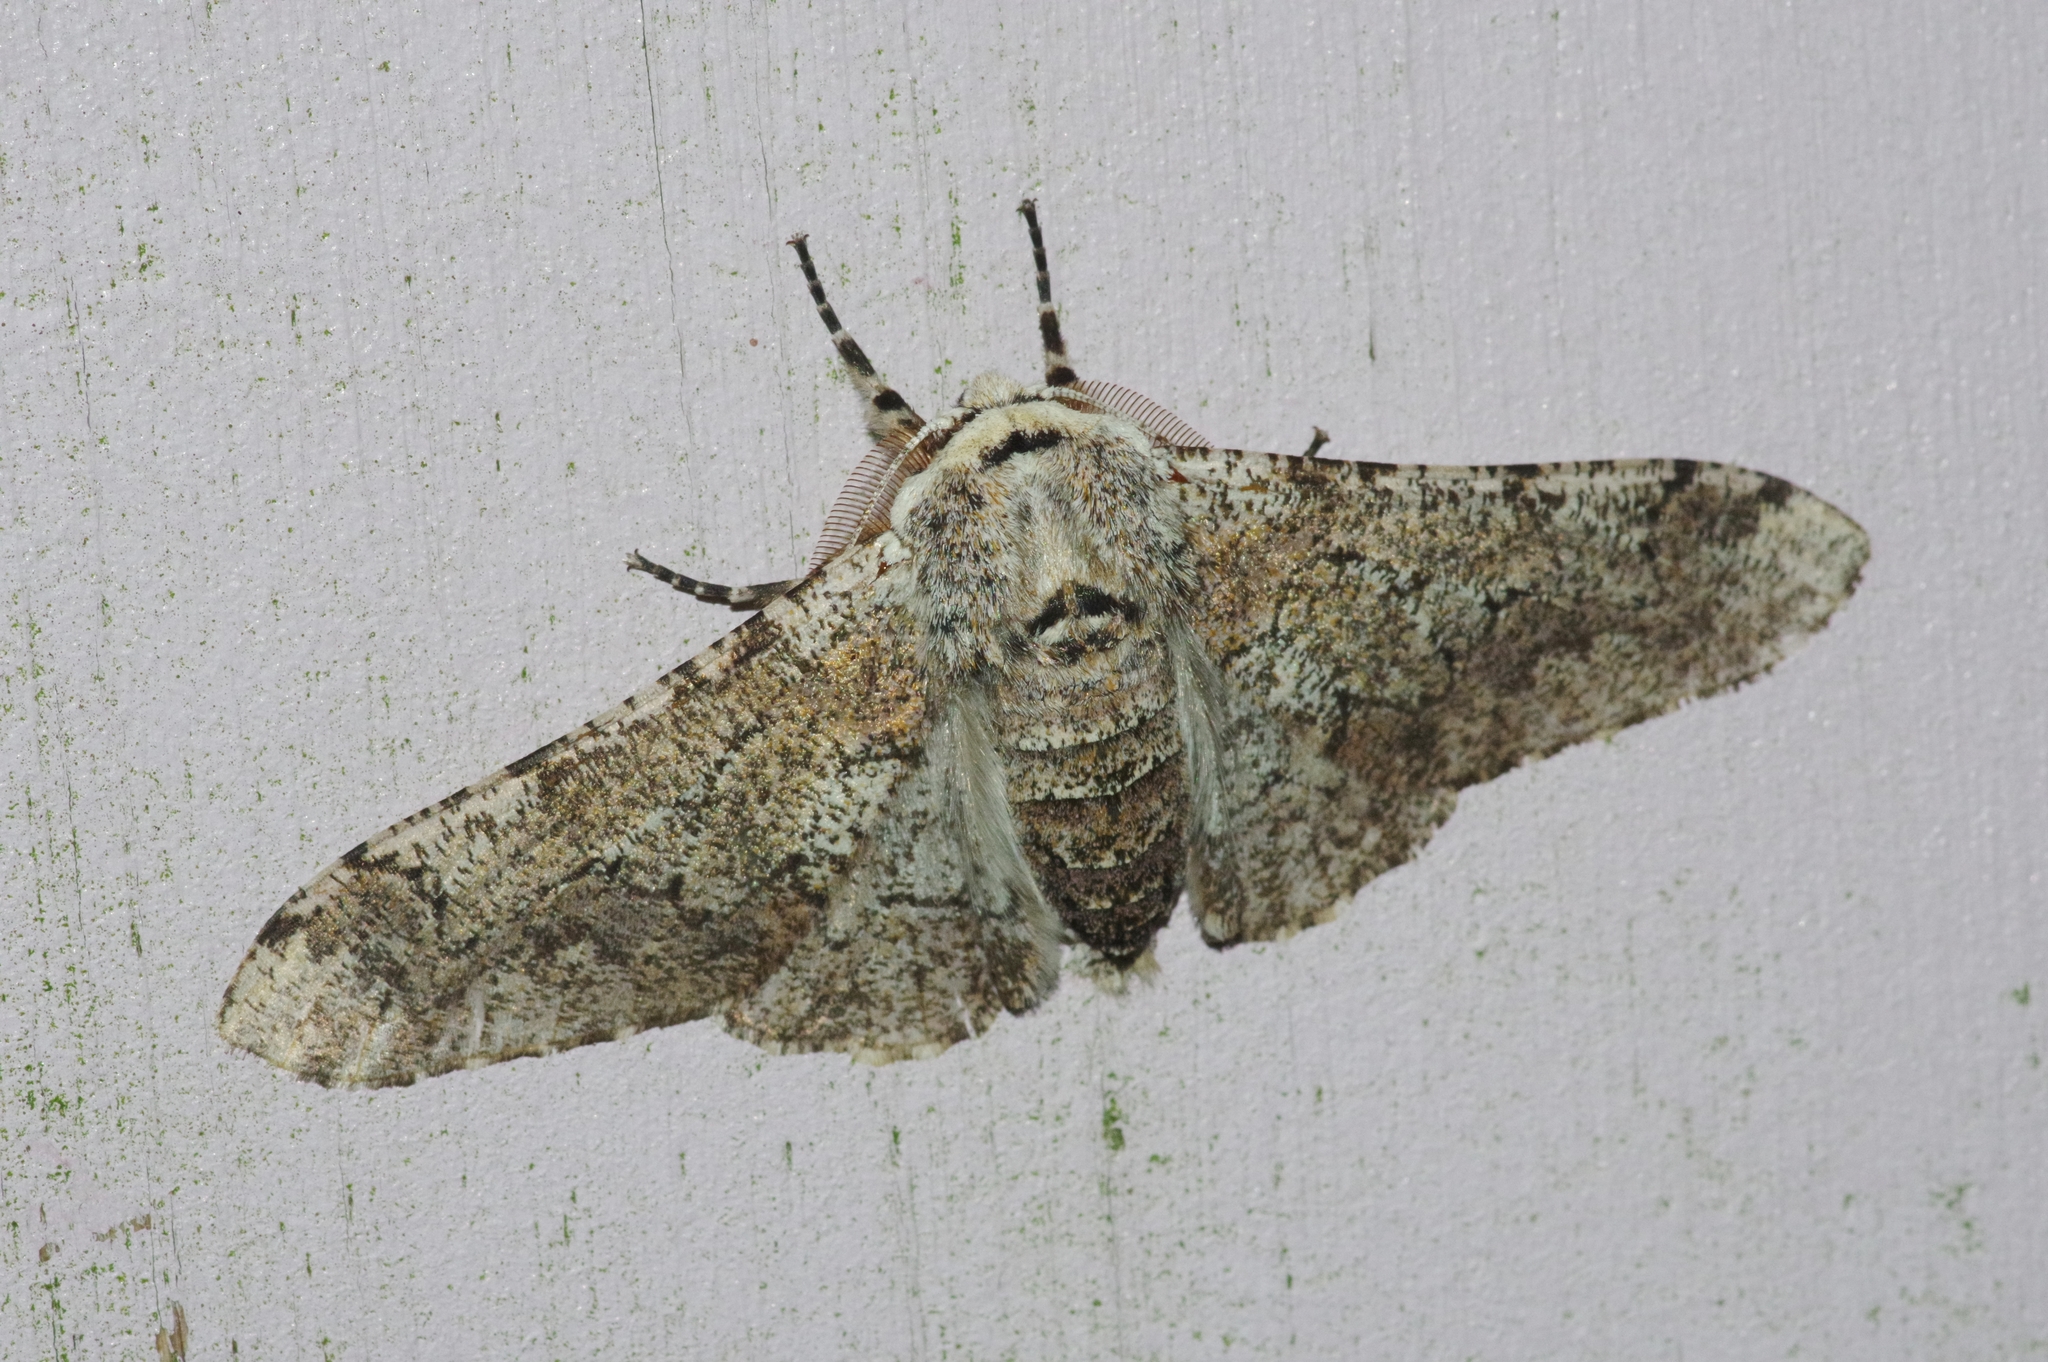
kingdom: Animalia
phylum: Arthropoda
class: Insecta
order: Lepidoptera
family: Geometridae
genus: Biston
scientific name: Biston robustum
